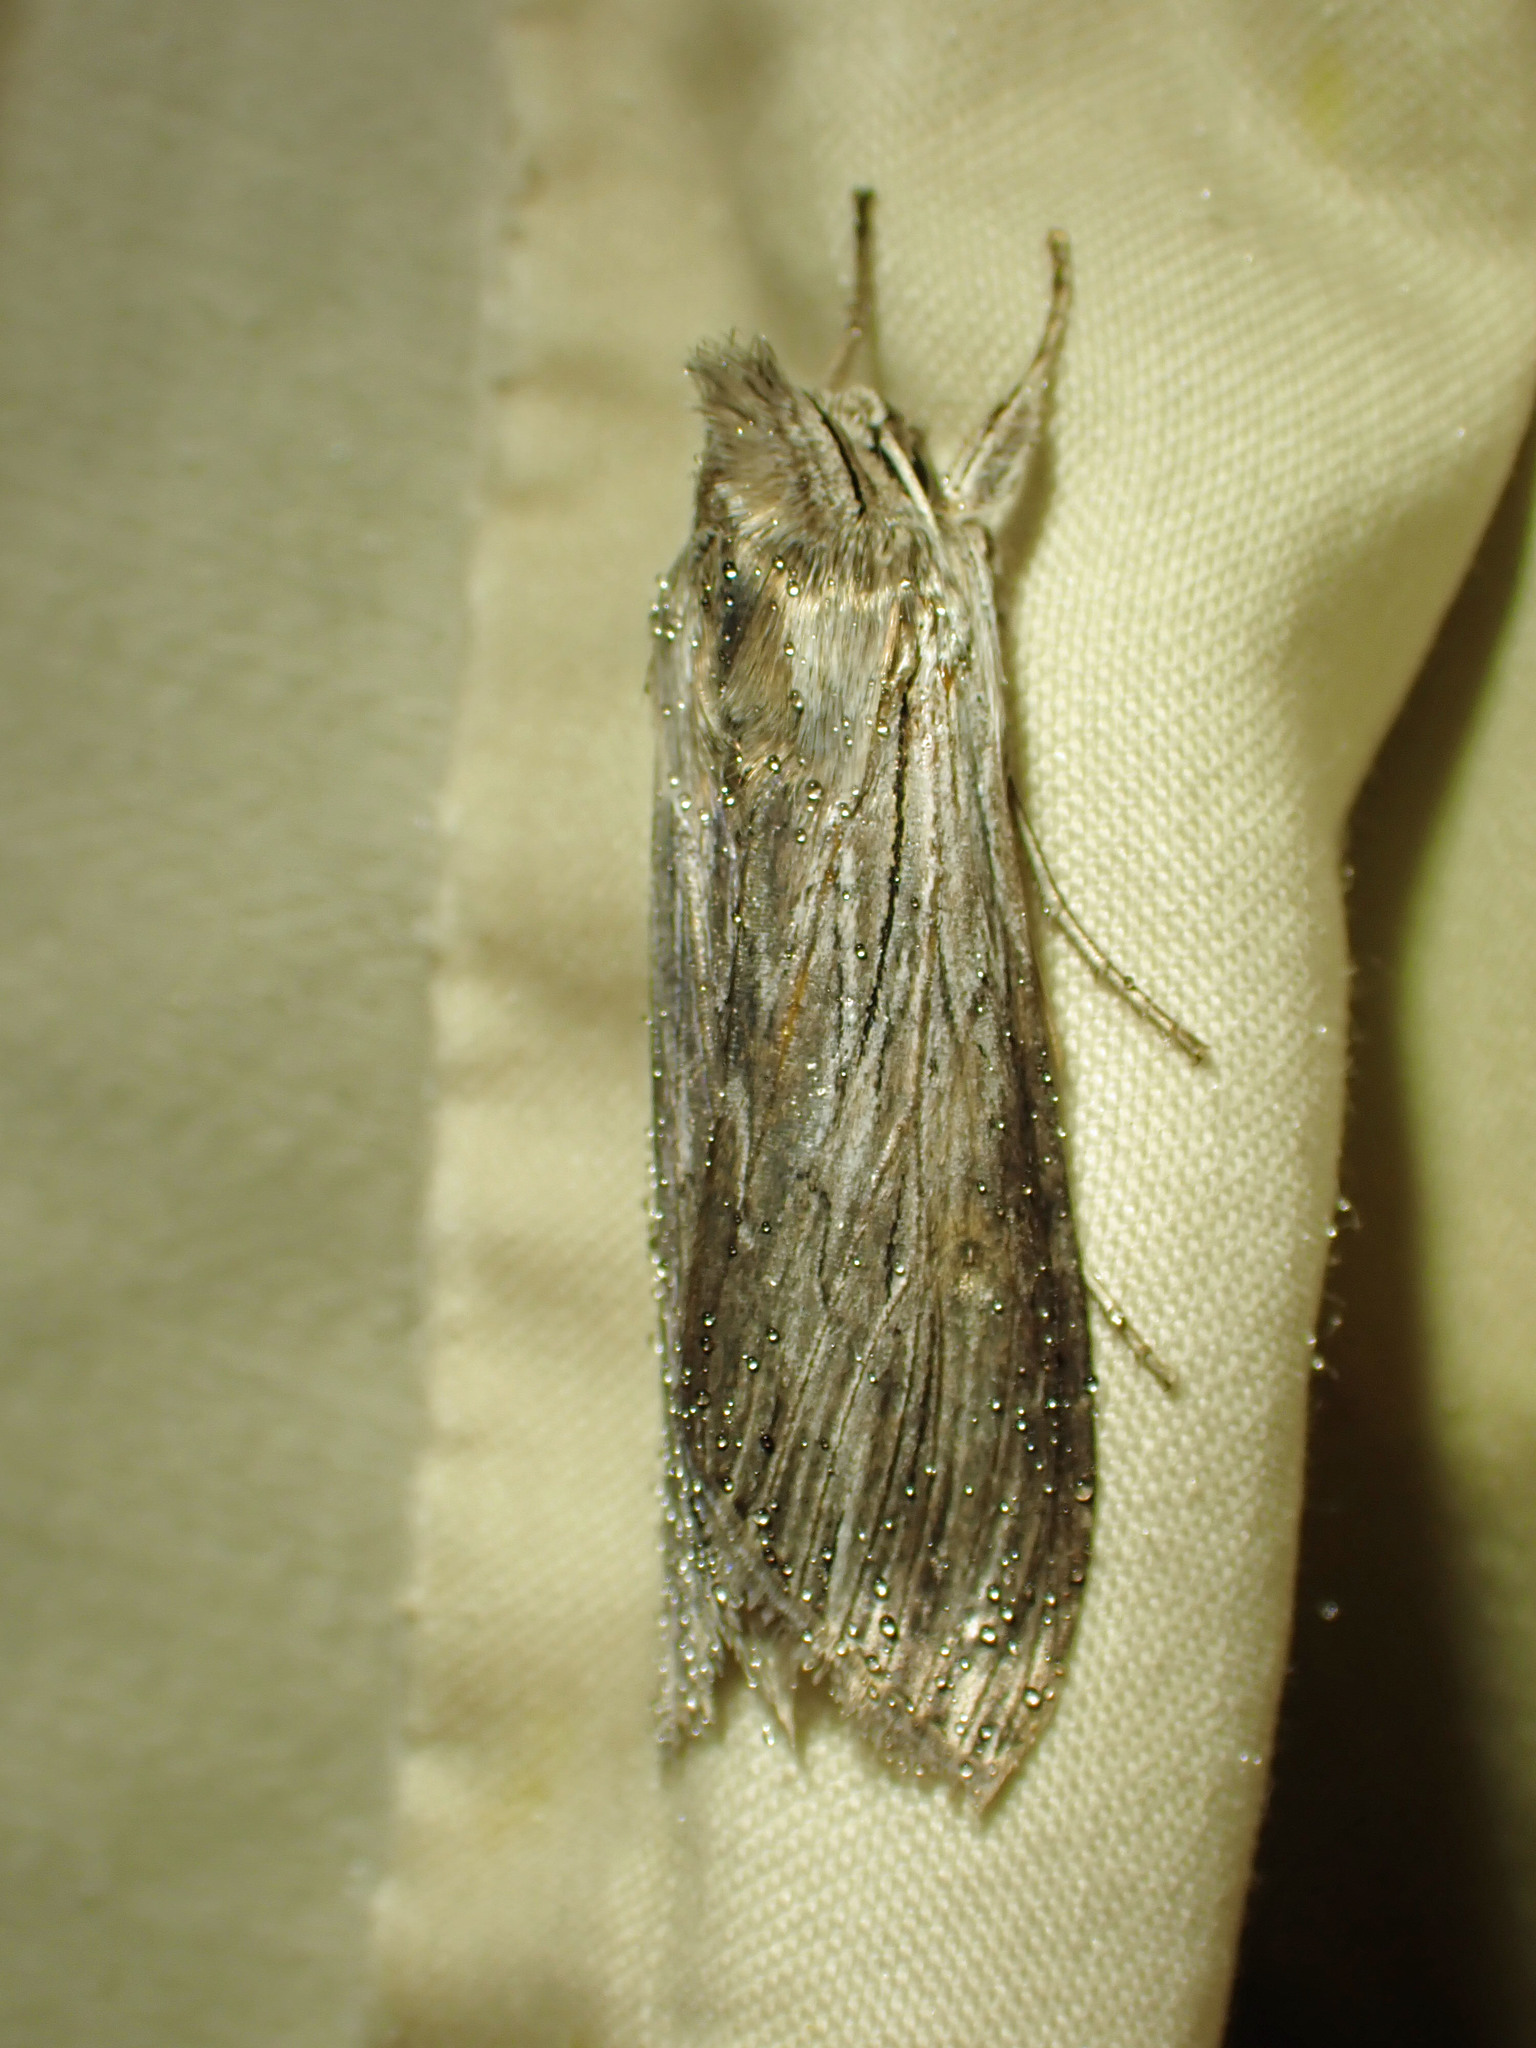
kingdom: Animalia
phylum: Arthropoda
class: Insecta
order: Lepidoptera
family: Noctuidae
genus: Cucullia
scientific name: Cucullia umbratica
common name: Shark
